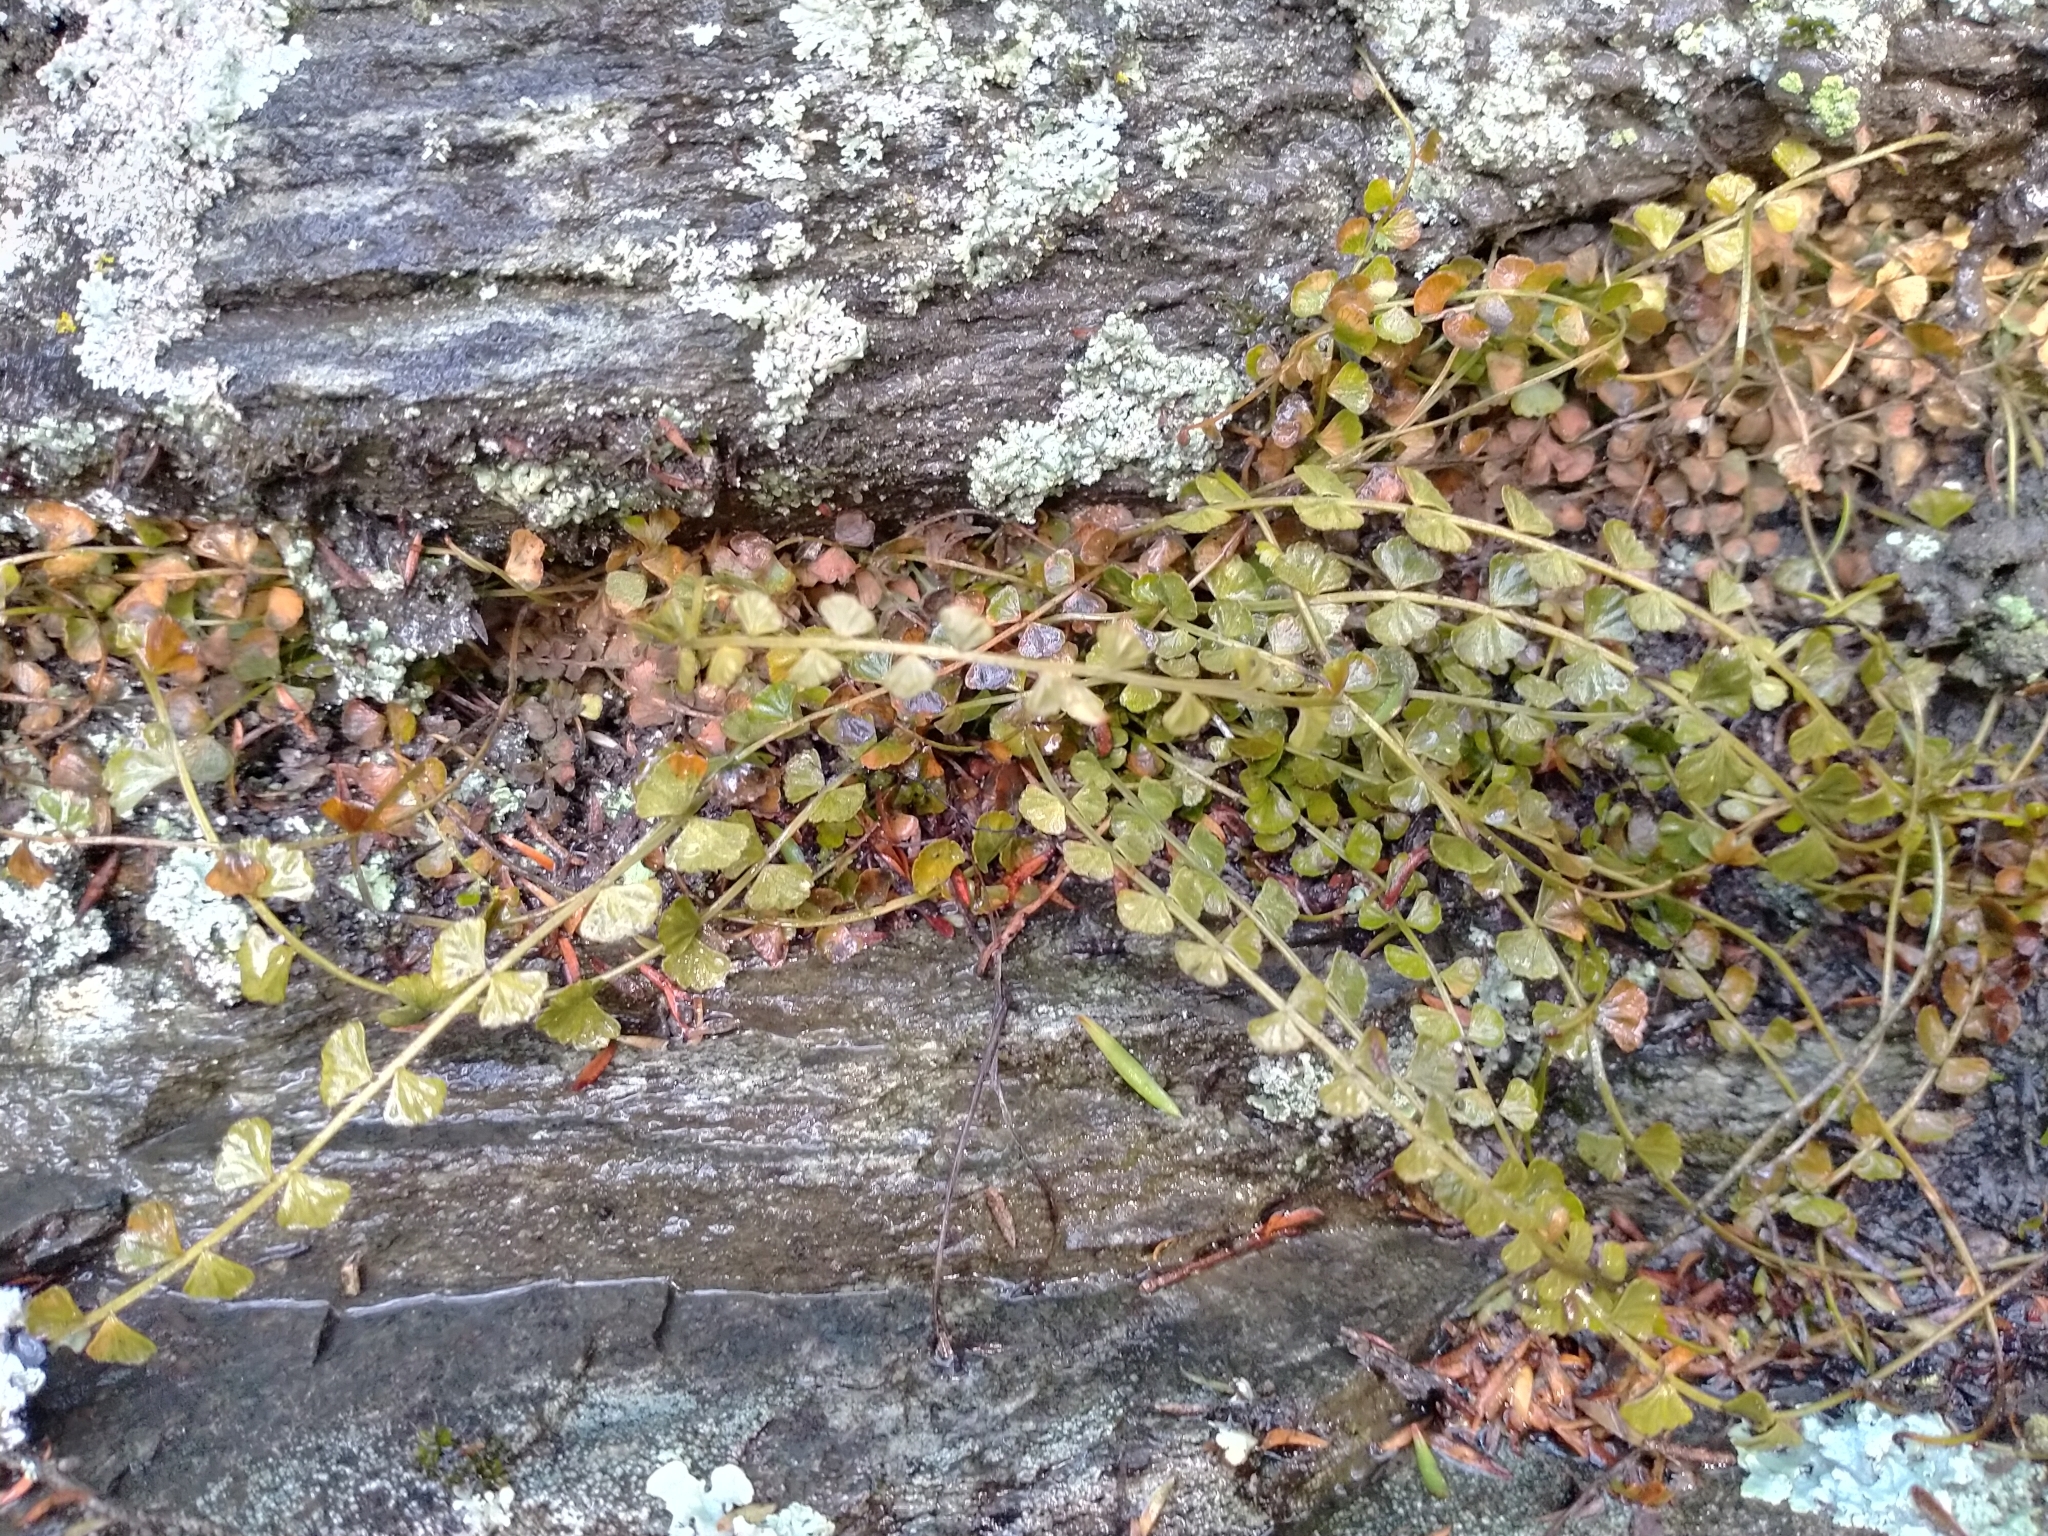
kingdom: Plantae
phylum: Tracheophyta
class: Polypodiopsida
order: Polypodiales
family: Aspleniaceae
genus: Asplenium
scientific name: Asplenium flabellifolium
